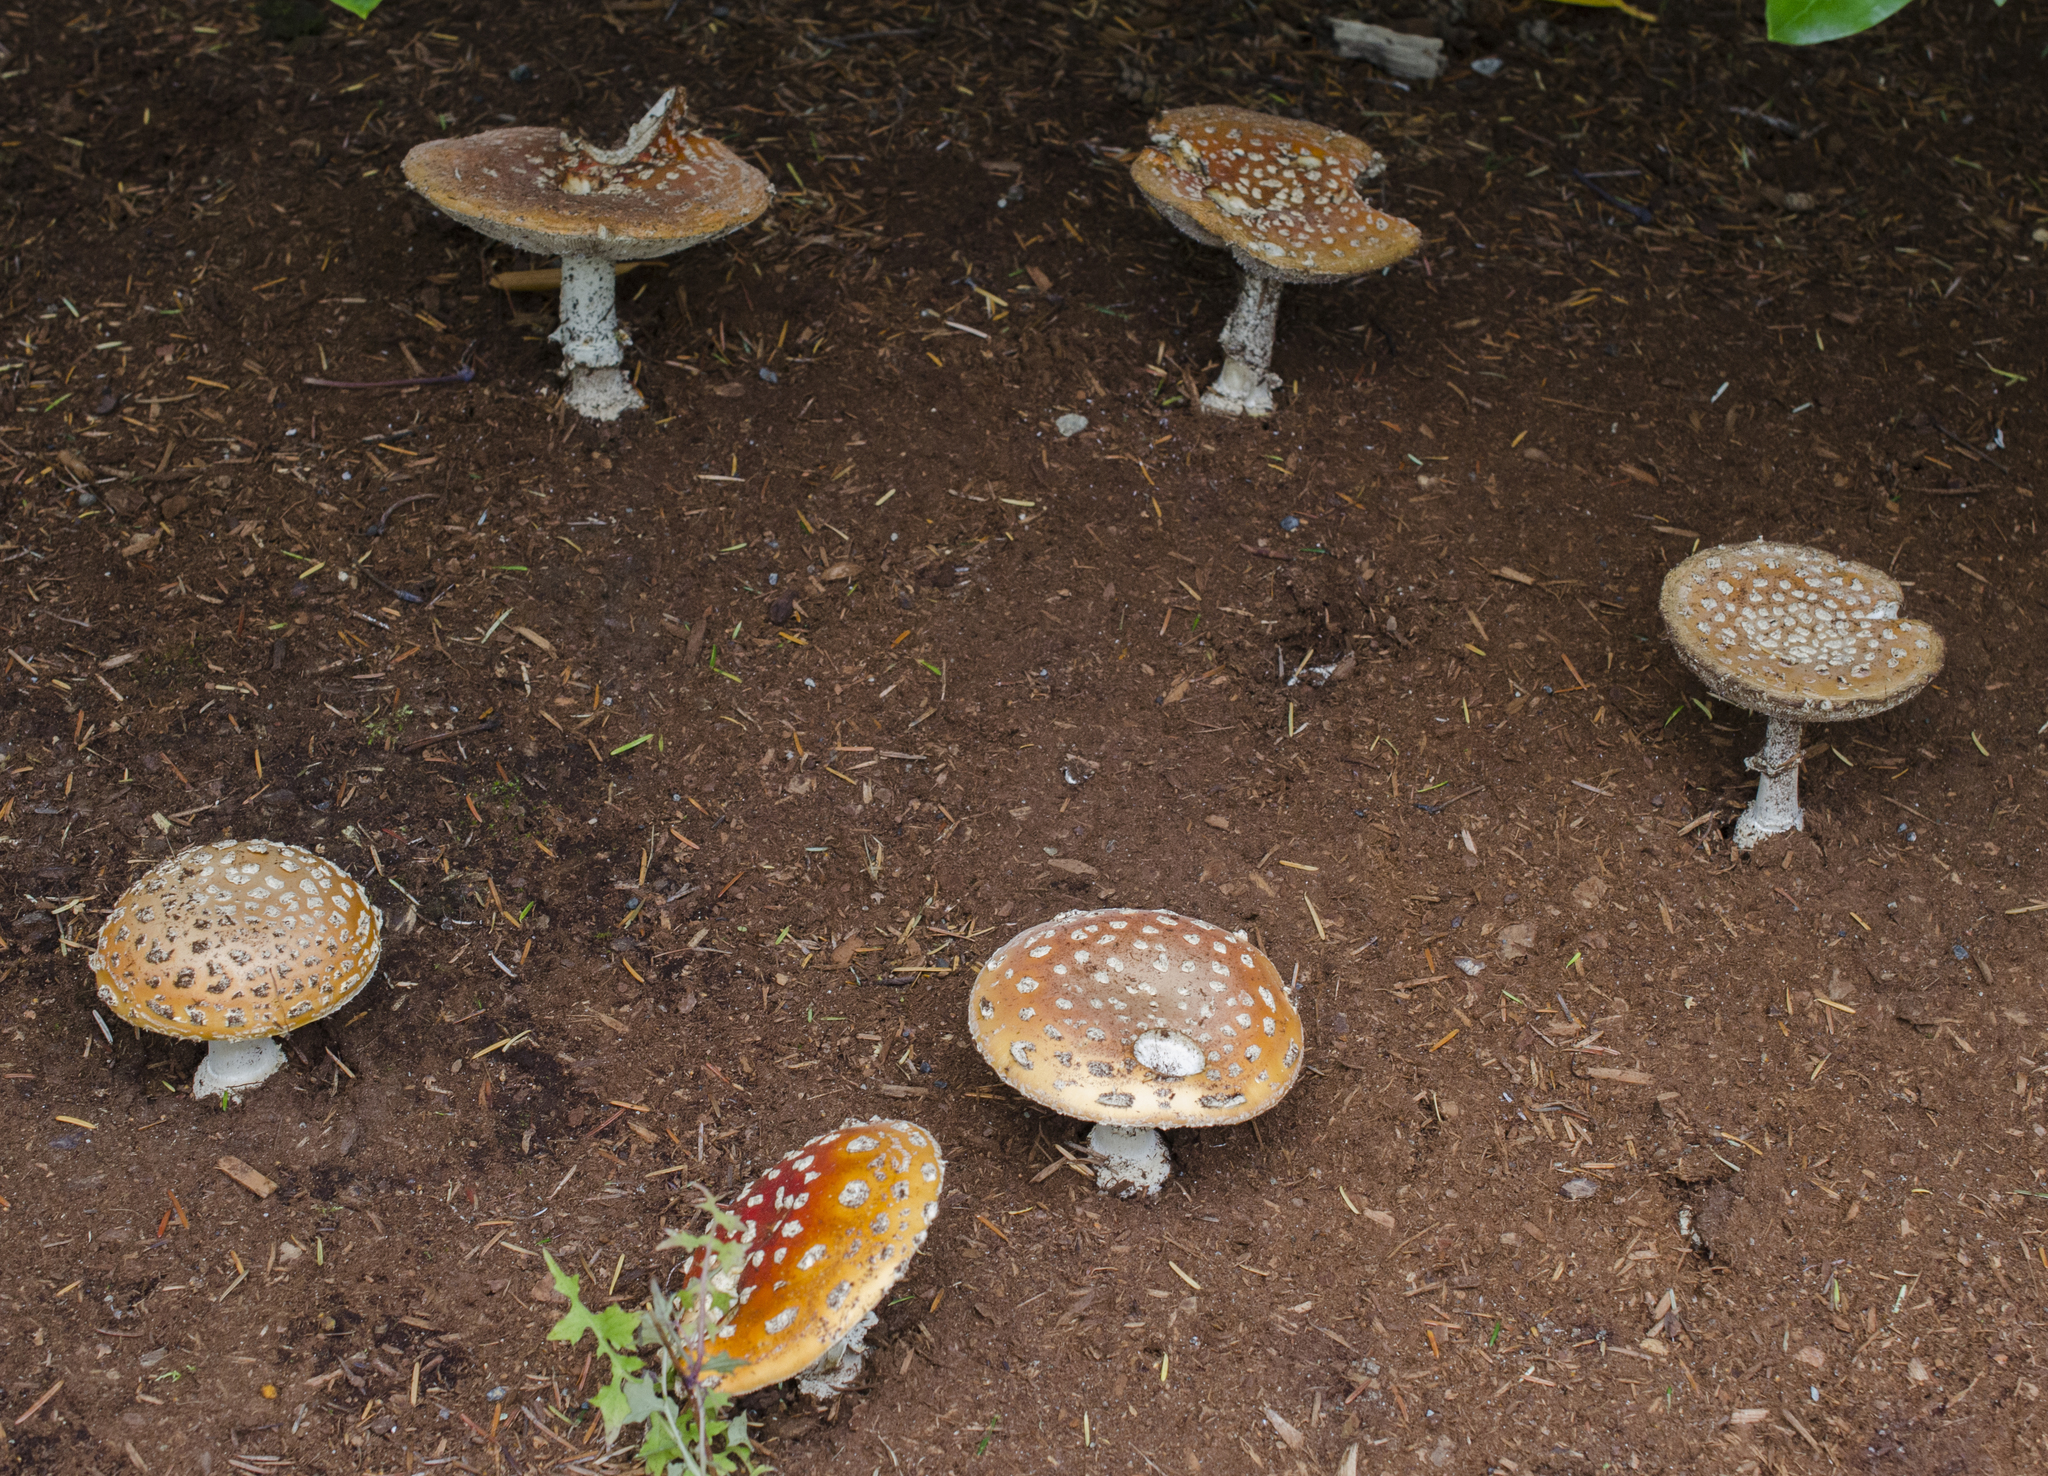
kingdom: Fungi
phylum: Basidiomycota
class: Agaricomycetes
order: Agaricales
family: Amanitaceae
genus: Amanita
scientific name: Amanita muscaria
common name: Fly agaric
